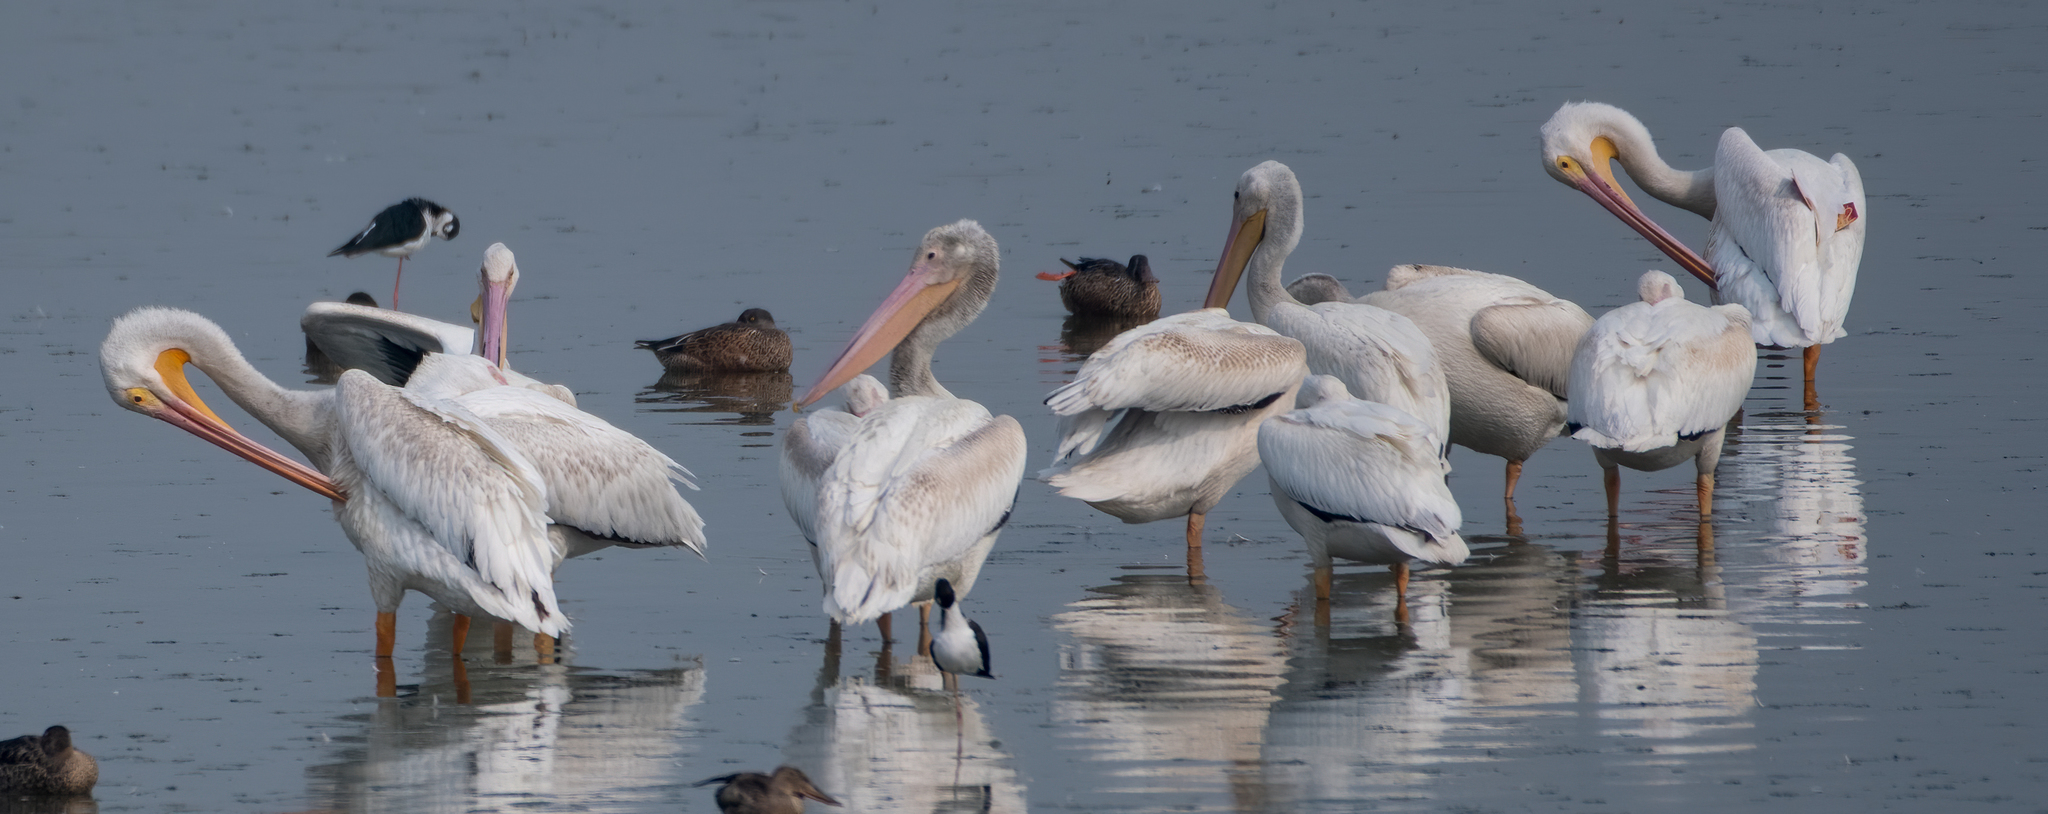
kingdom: Animalia
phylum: Chordata
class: Aves
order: Pelecaniformes
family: Pelecanidae
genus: Pelecanus
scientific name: Pelecanus erythrorhynchos
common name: American white pelican
